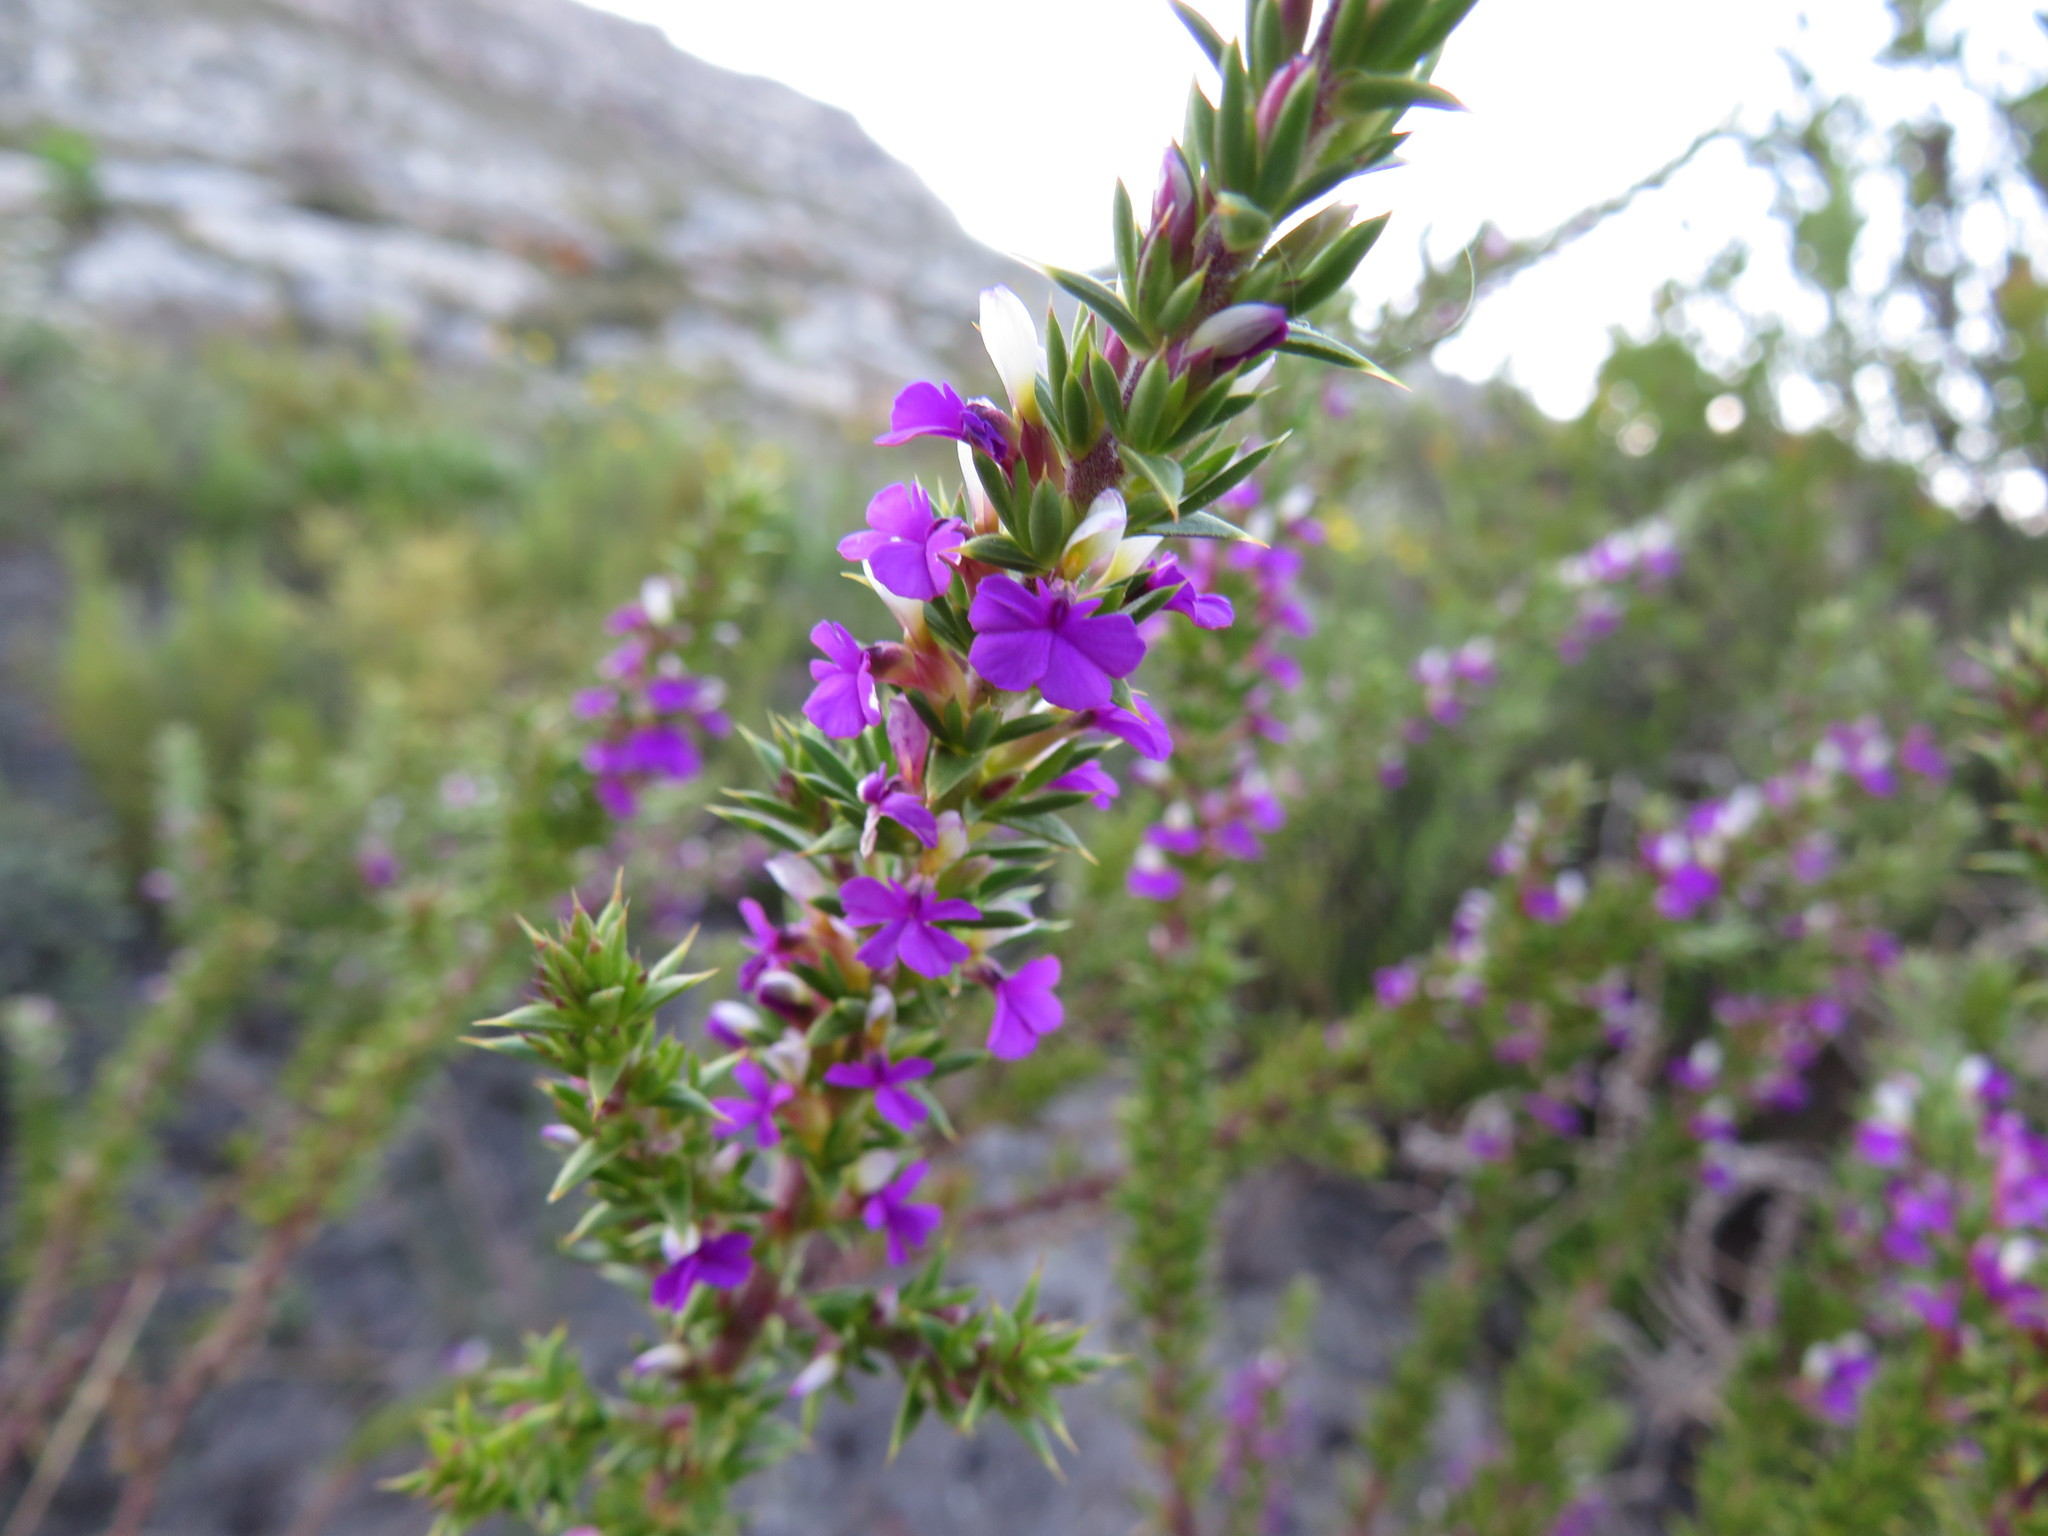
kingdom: Plantae
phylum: Tracheophyta
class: Magnoliopsida
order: Fabales
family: Polygalaceae
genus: Muraltia
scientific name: Muraltia heisteria
